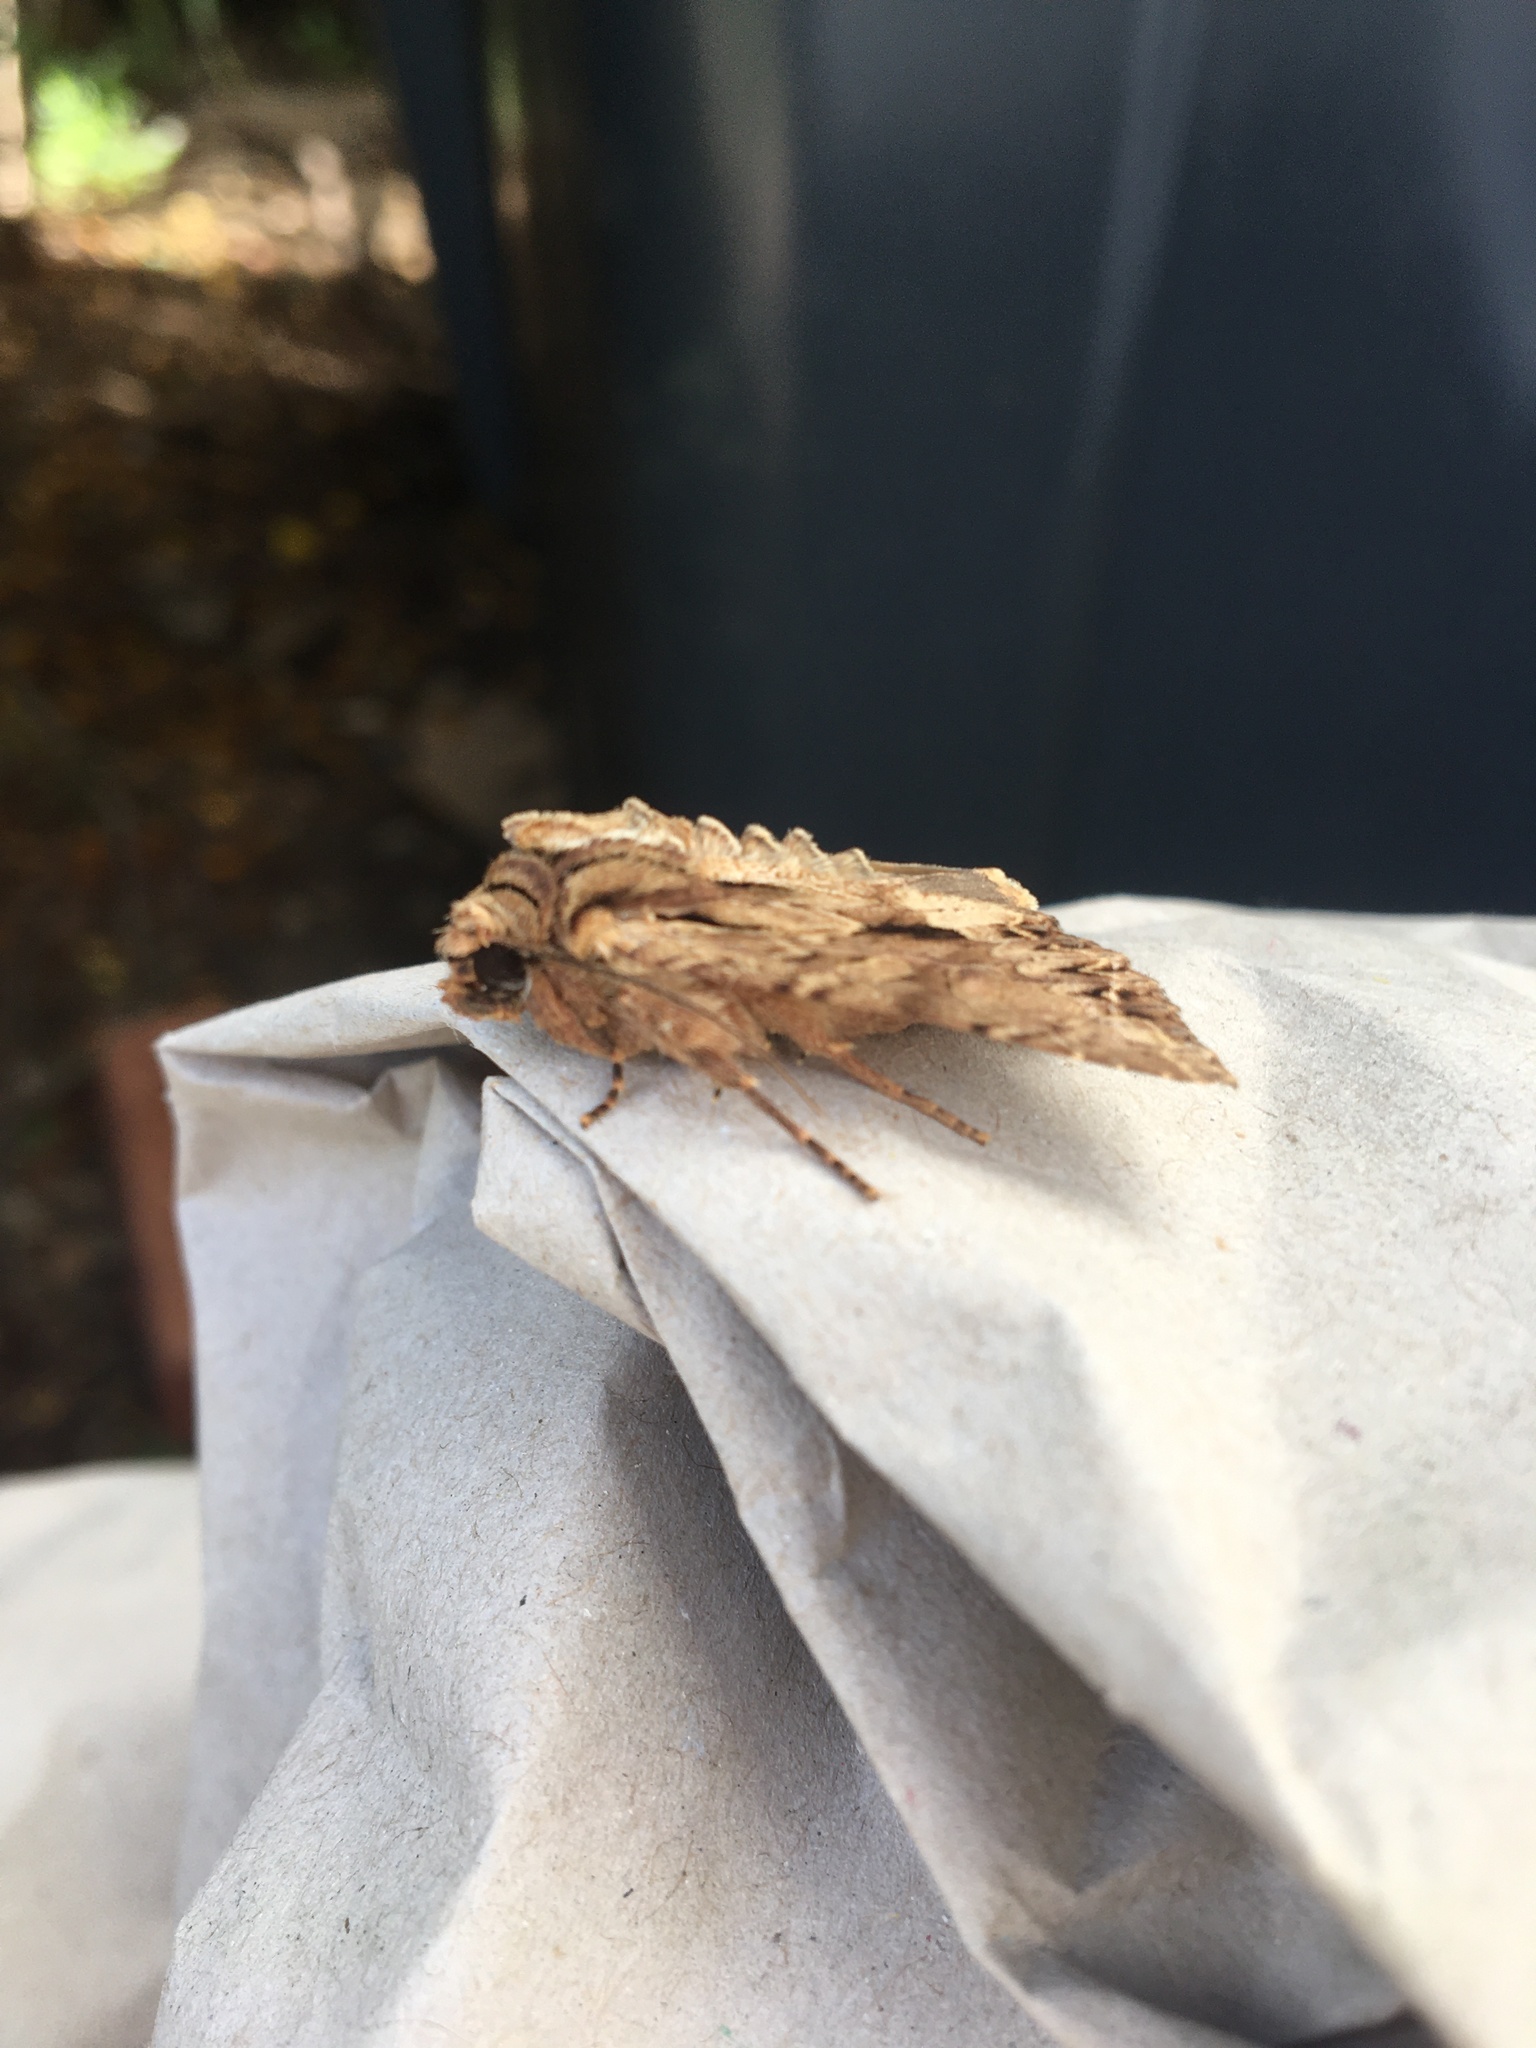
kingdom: Animalia
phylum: Arthropoda
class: Insecta
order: Lepidoptera
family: Noctuidae
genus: Apamea
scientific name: Apamea monoglypha
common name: Dark arches
